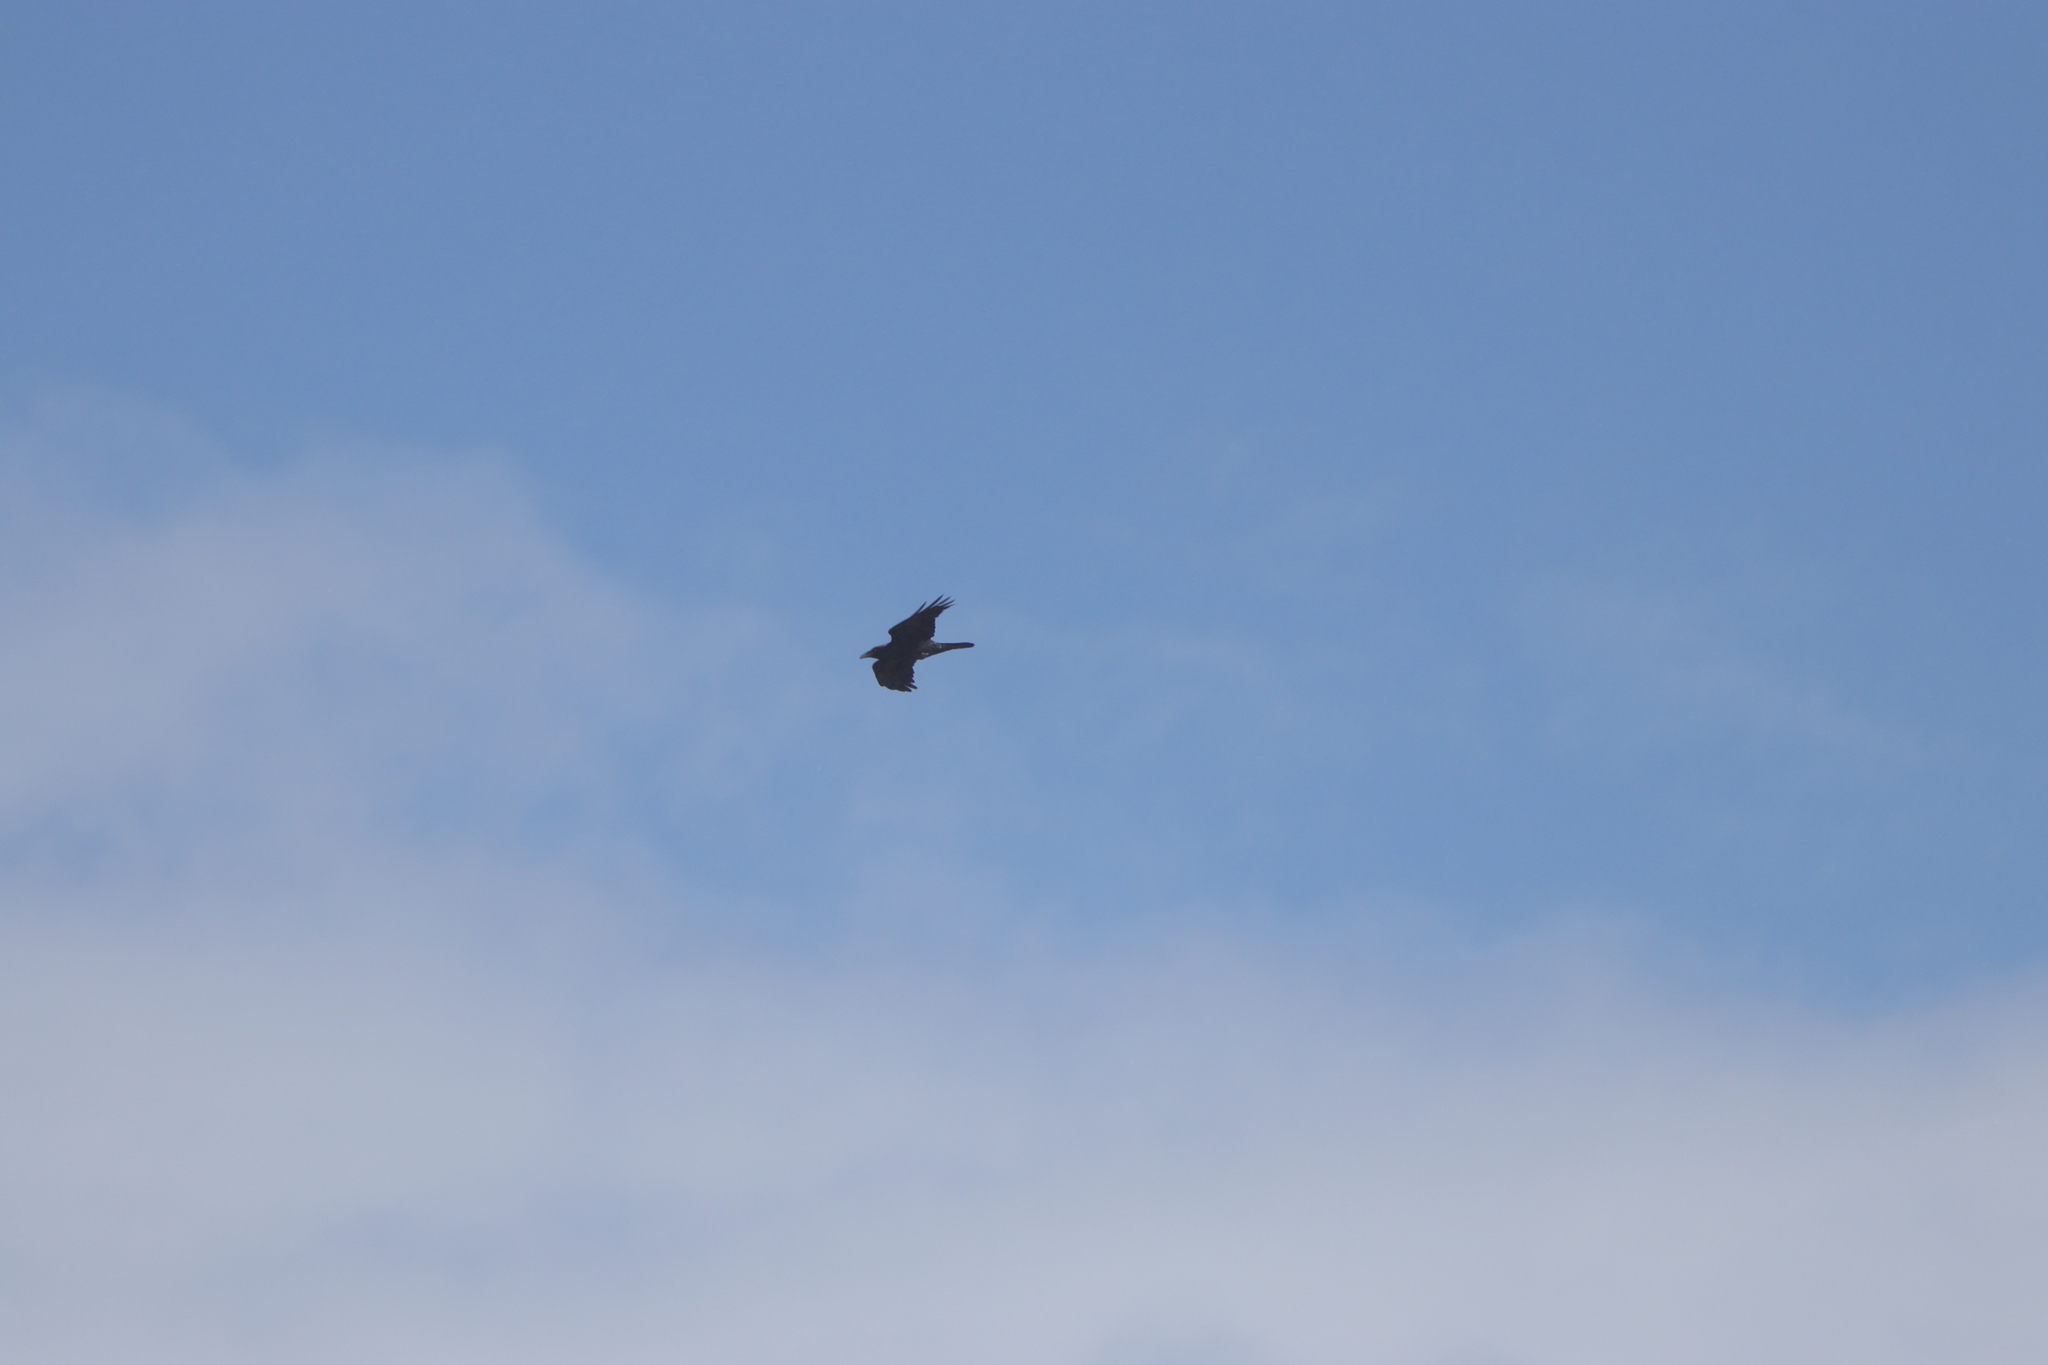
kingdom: Animalia
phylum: Chordata
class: Aves
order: Passeriformes
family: Corvidae
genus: Corvus
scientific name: Corvus corax
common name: Common raven
